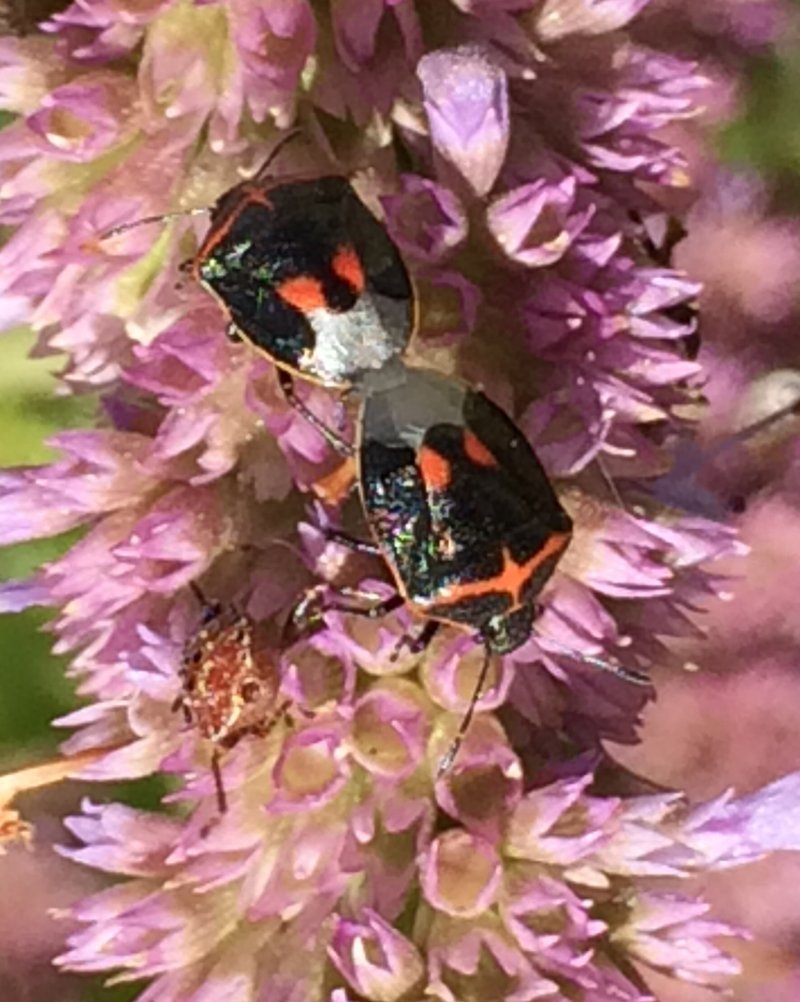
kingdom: Animalia
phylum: Arthropoda
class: Insecta
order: Hemiptera
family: Pentatomidae
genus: Cosmopepla
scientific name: Cosmopepla lintneriana
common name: Twice-stabbed stink bug
